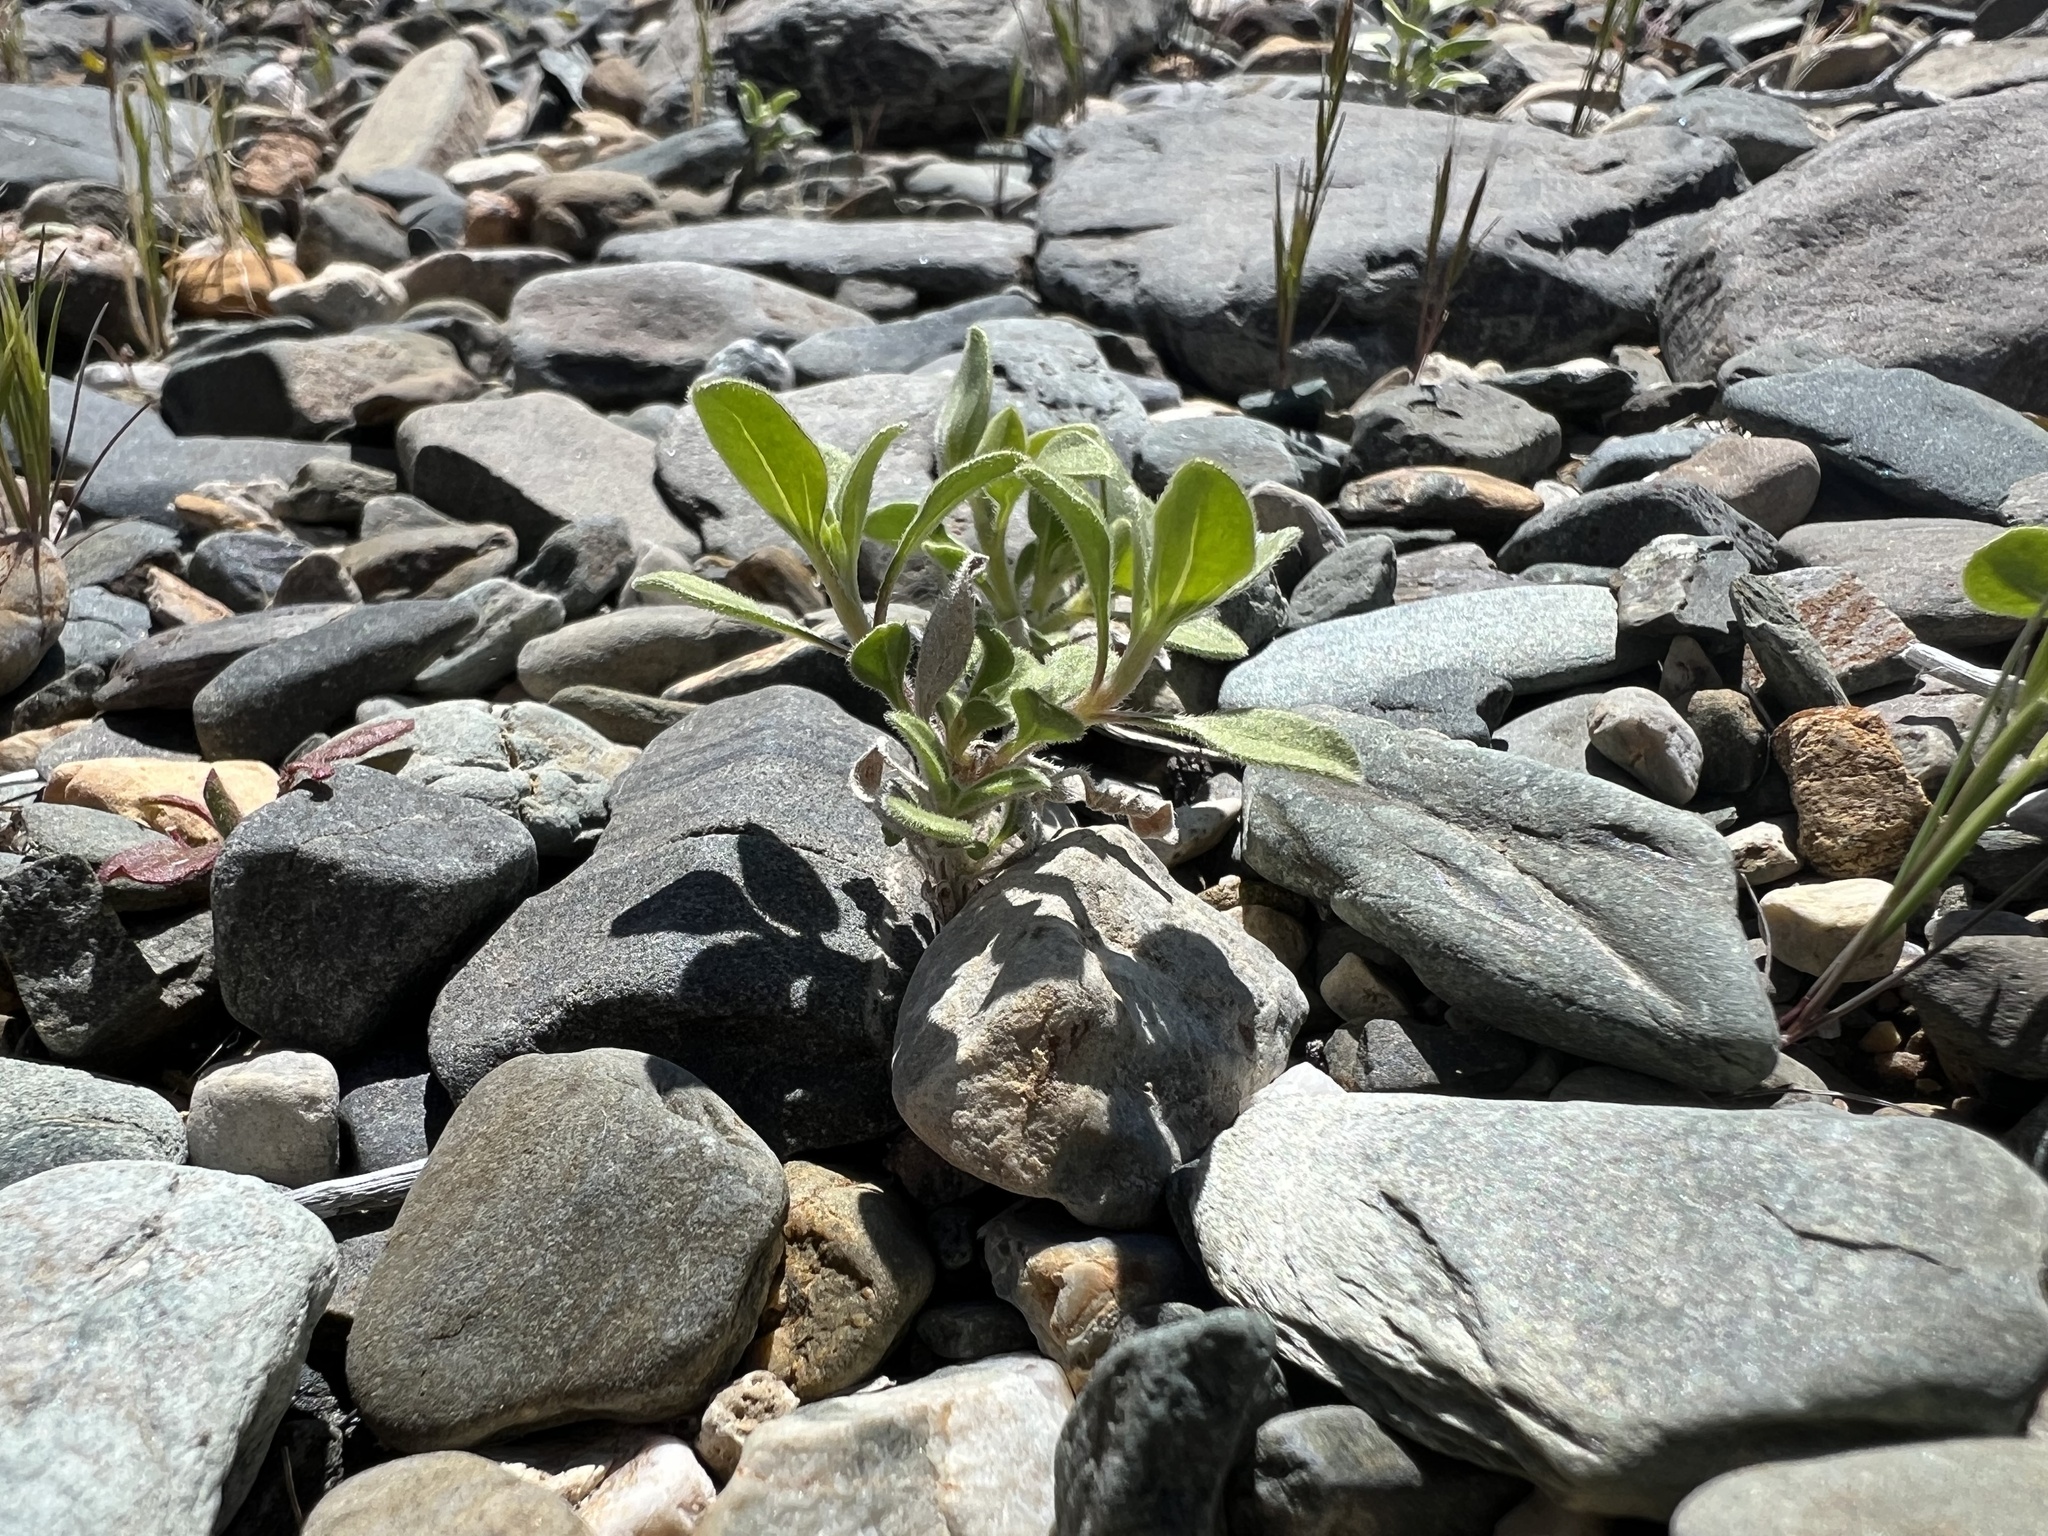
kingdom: Plantae
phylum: Tracheophyta
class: Magnoliopsida
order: Asterales
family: Asteraceae
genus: Encelia
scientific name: Encelia actoni
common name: Acton encelia
